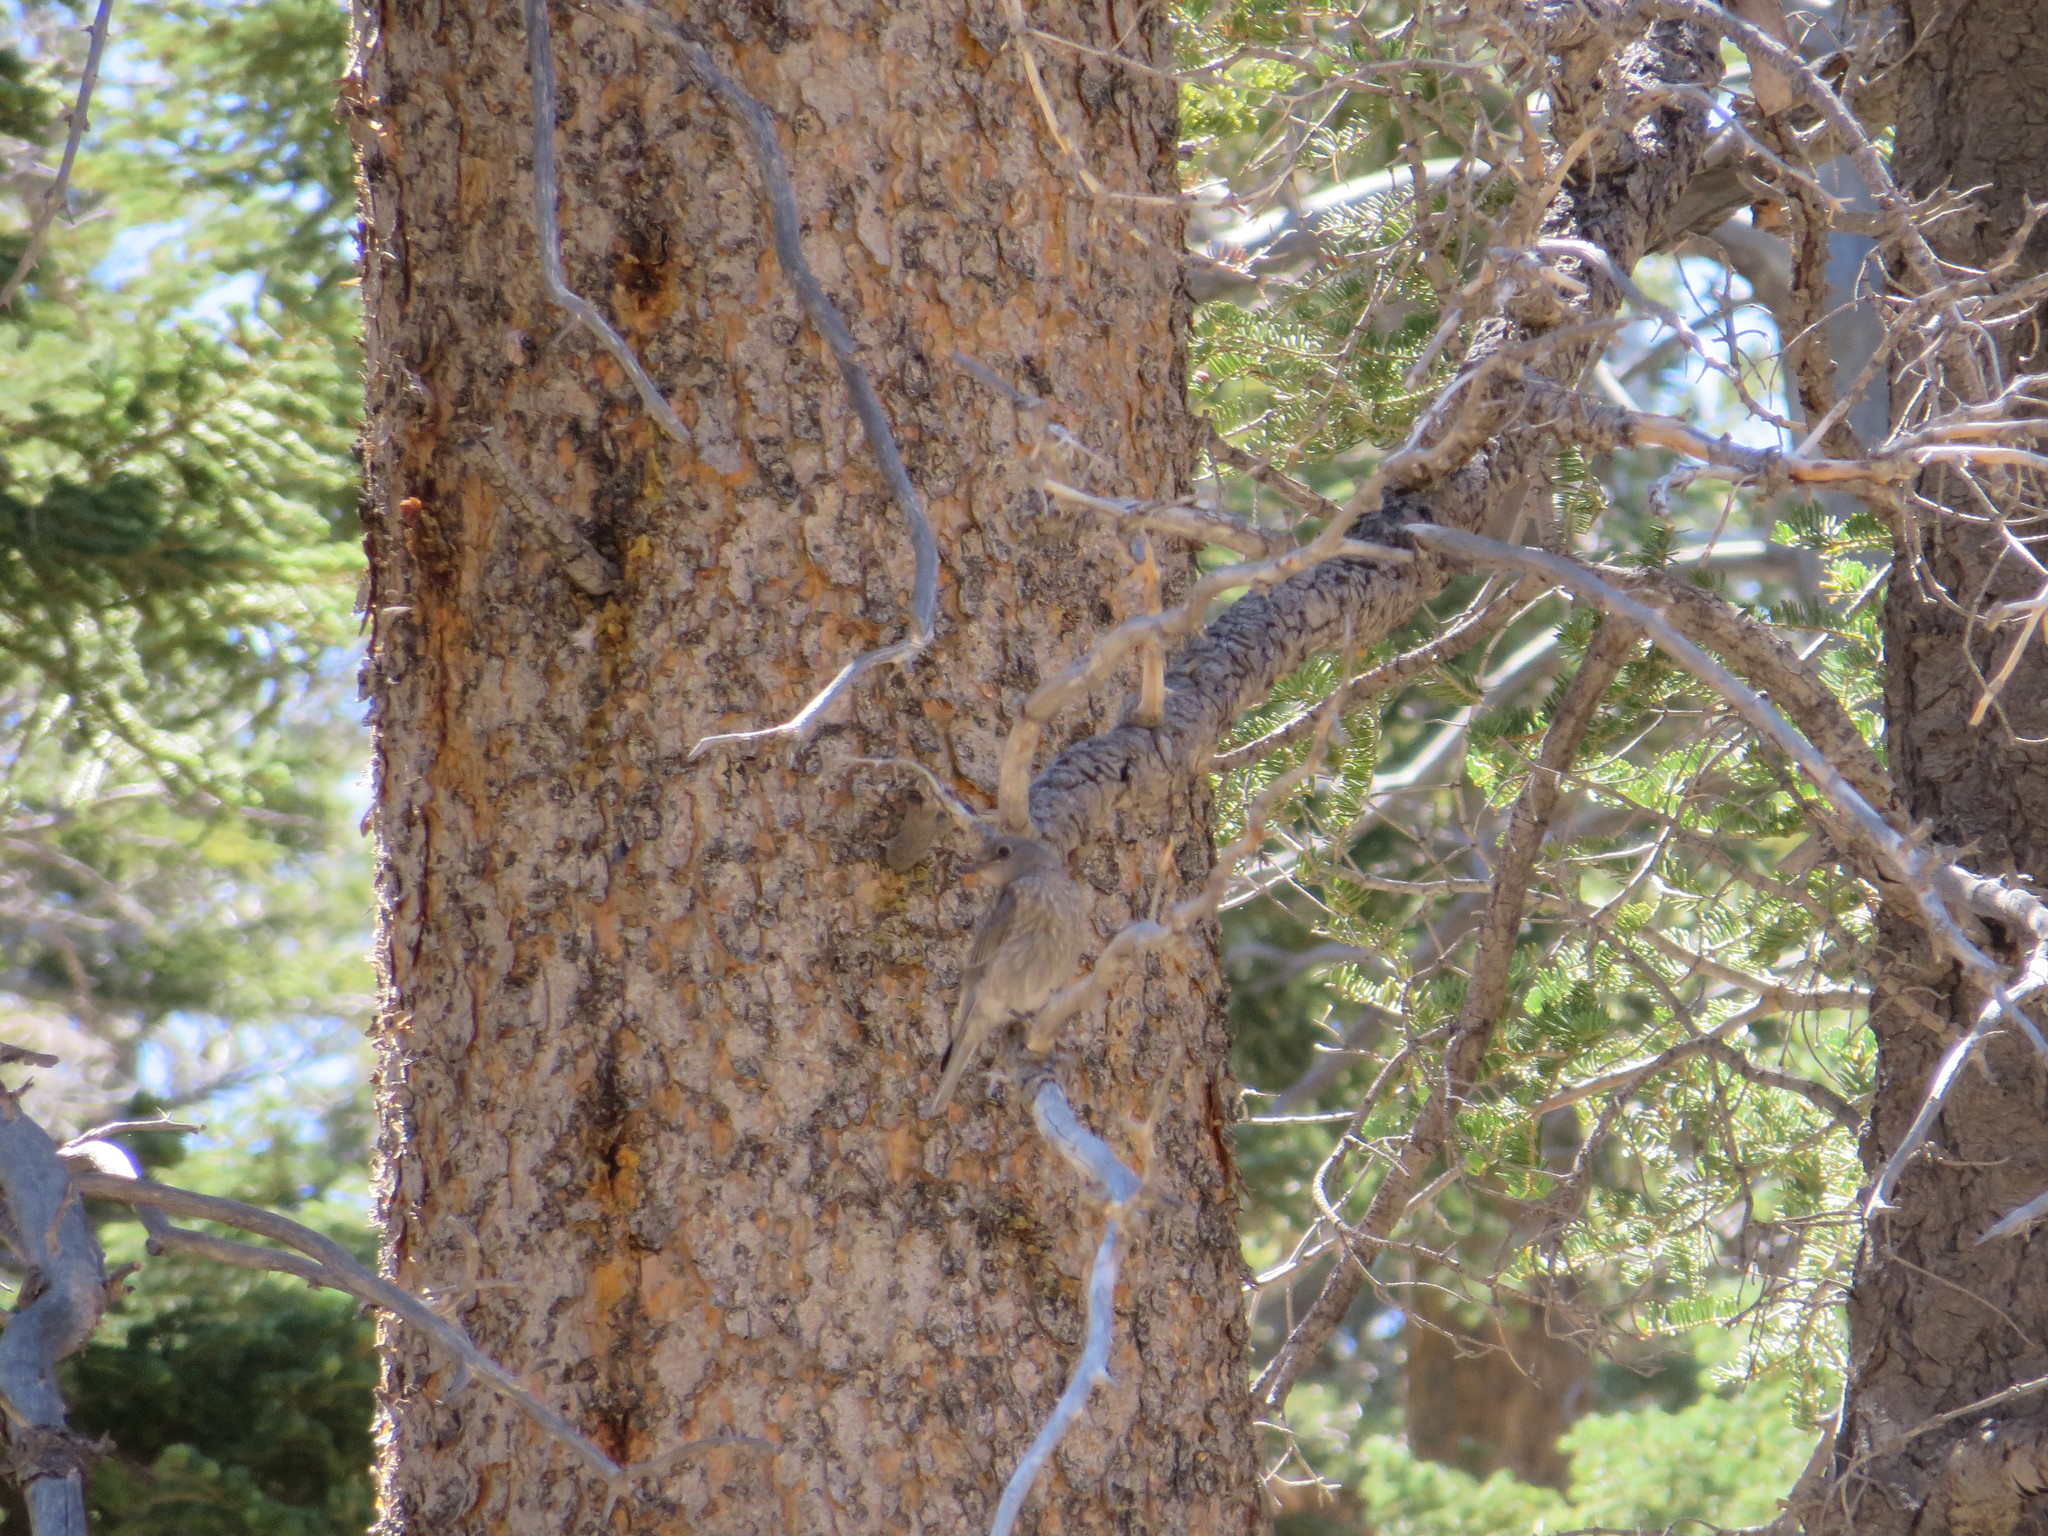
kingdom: Animalia
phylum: Chordata
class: Aves
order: Passeriformes
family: Turdidae
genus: Sialia
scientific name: Sialia mexicana
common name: Western bluebird
